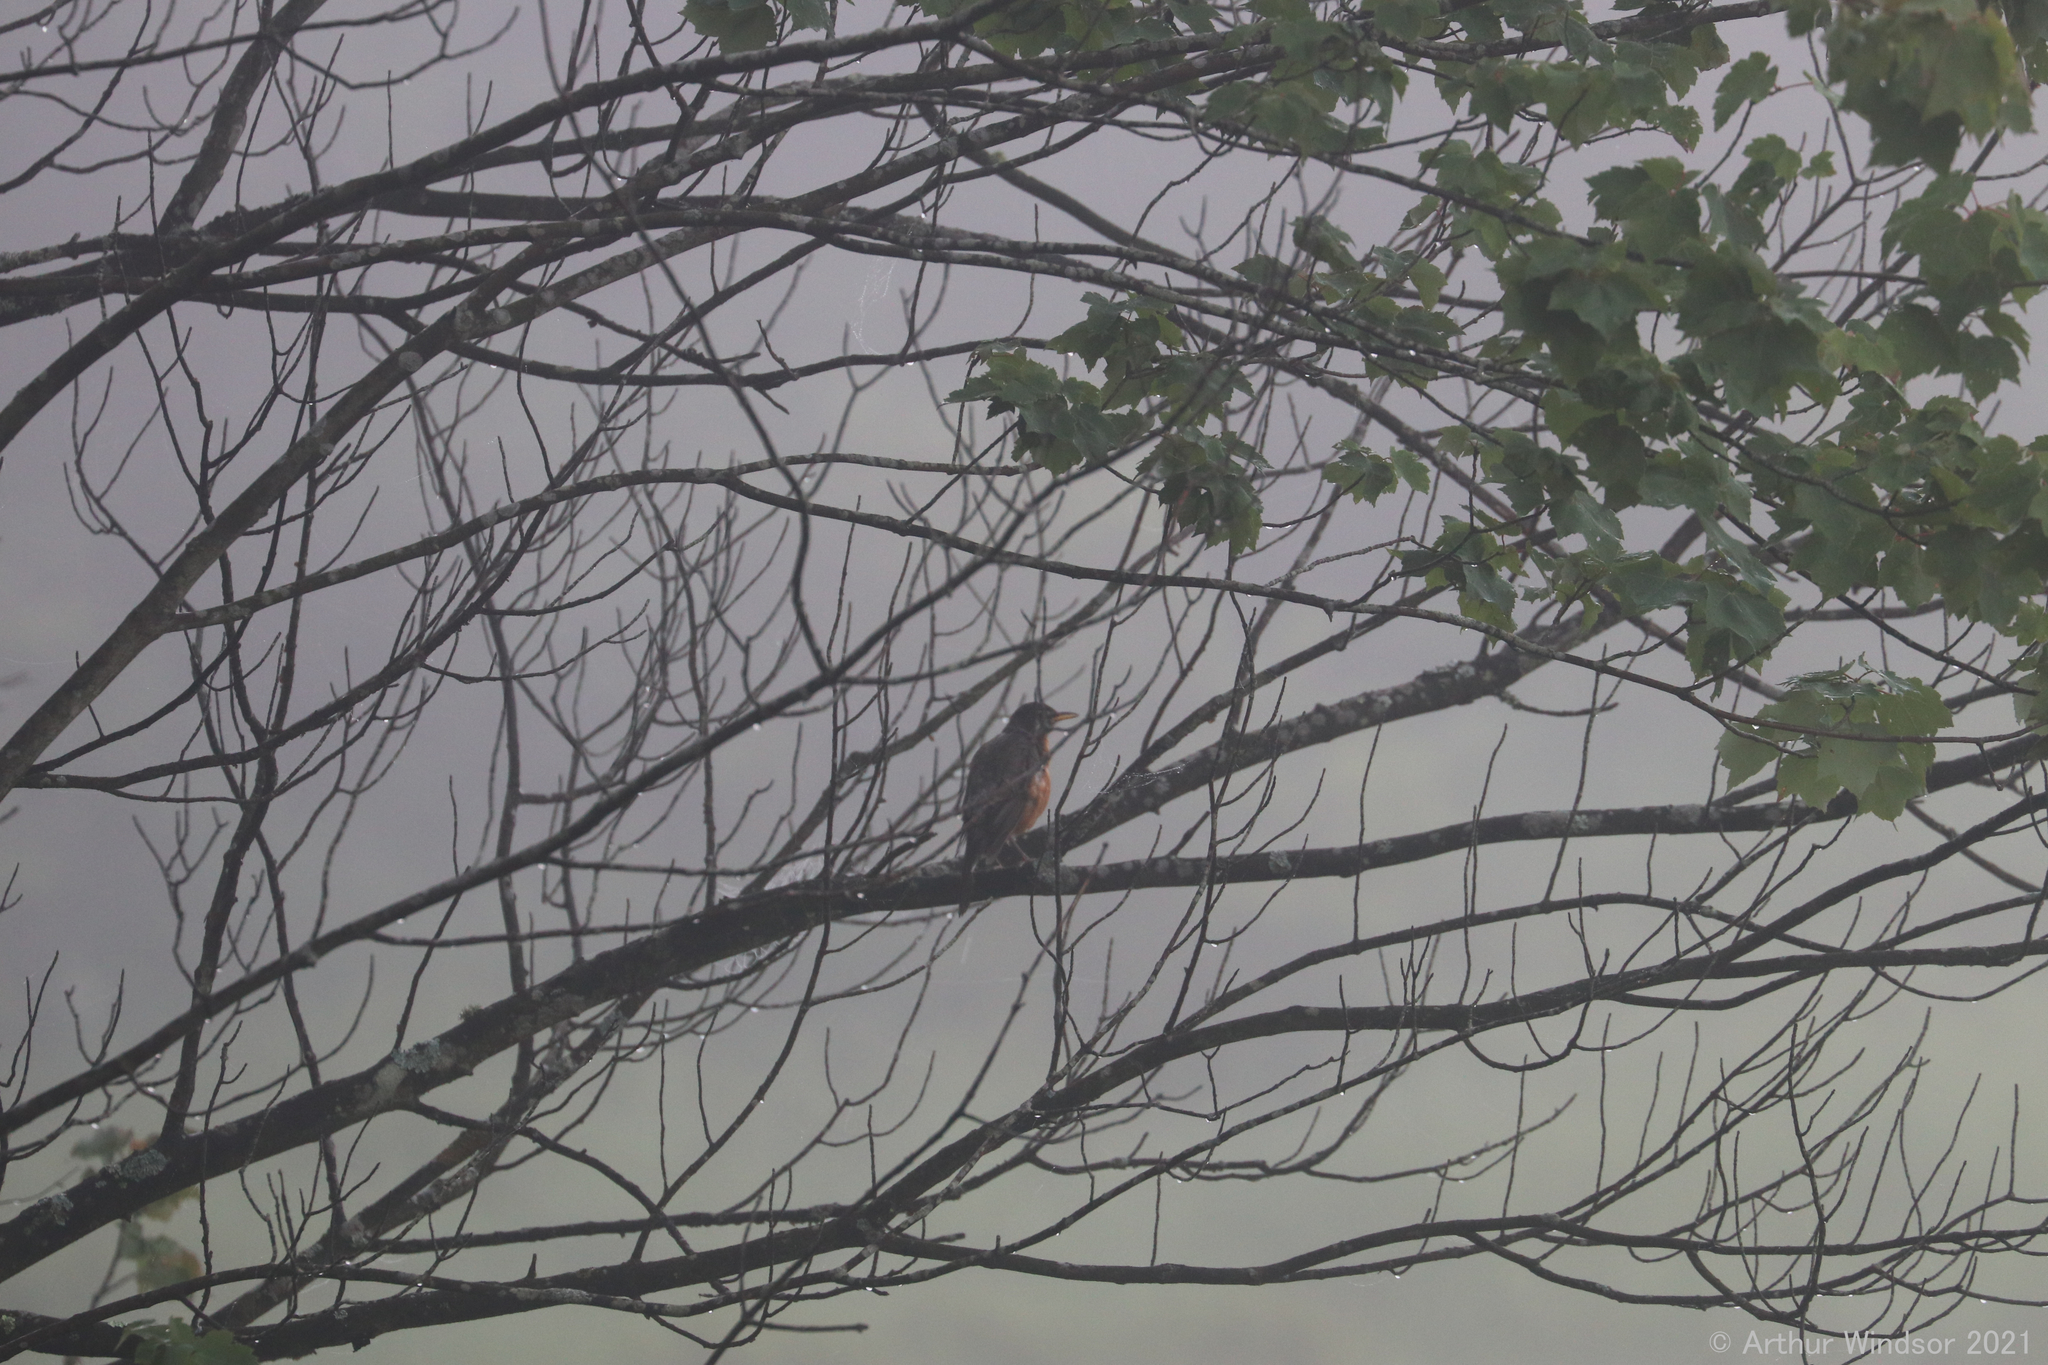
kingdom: Animalia
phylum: Chordata
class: Aves
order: Passeriformes
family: Turdidae
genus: Turdus
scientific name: Turdus migratorius
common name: American robin
